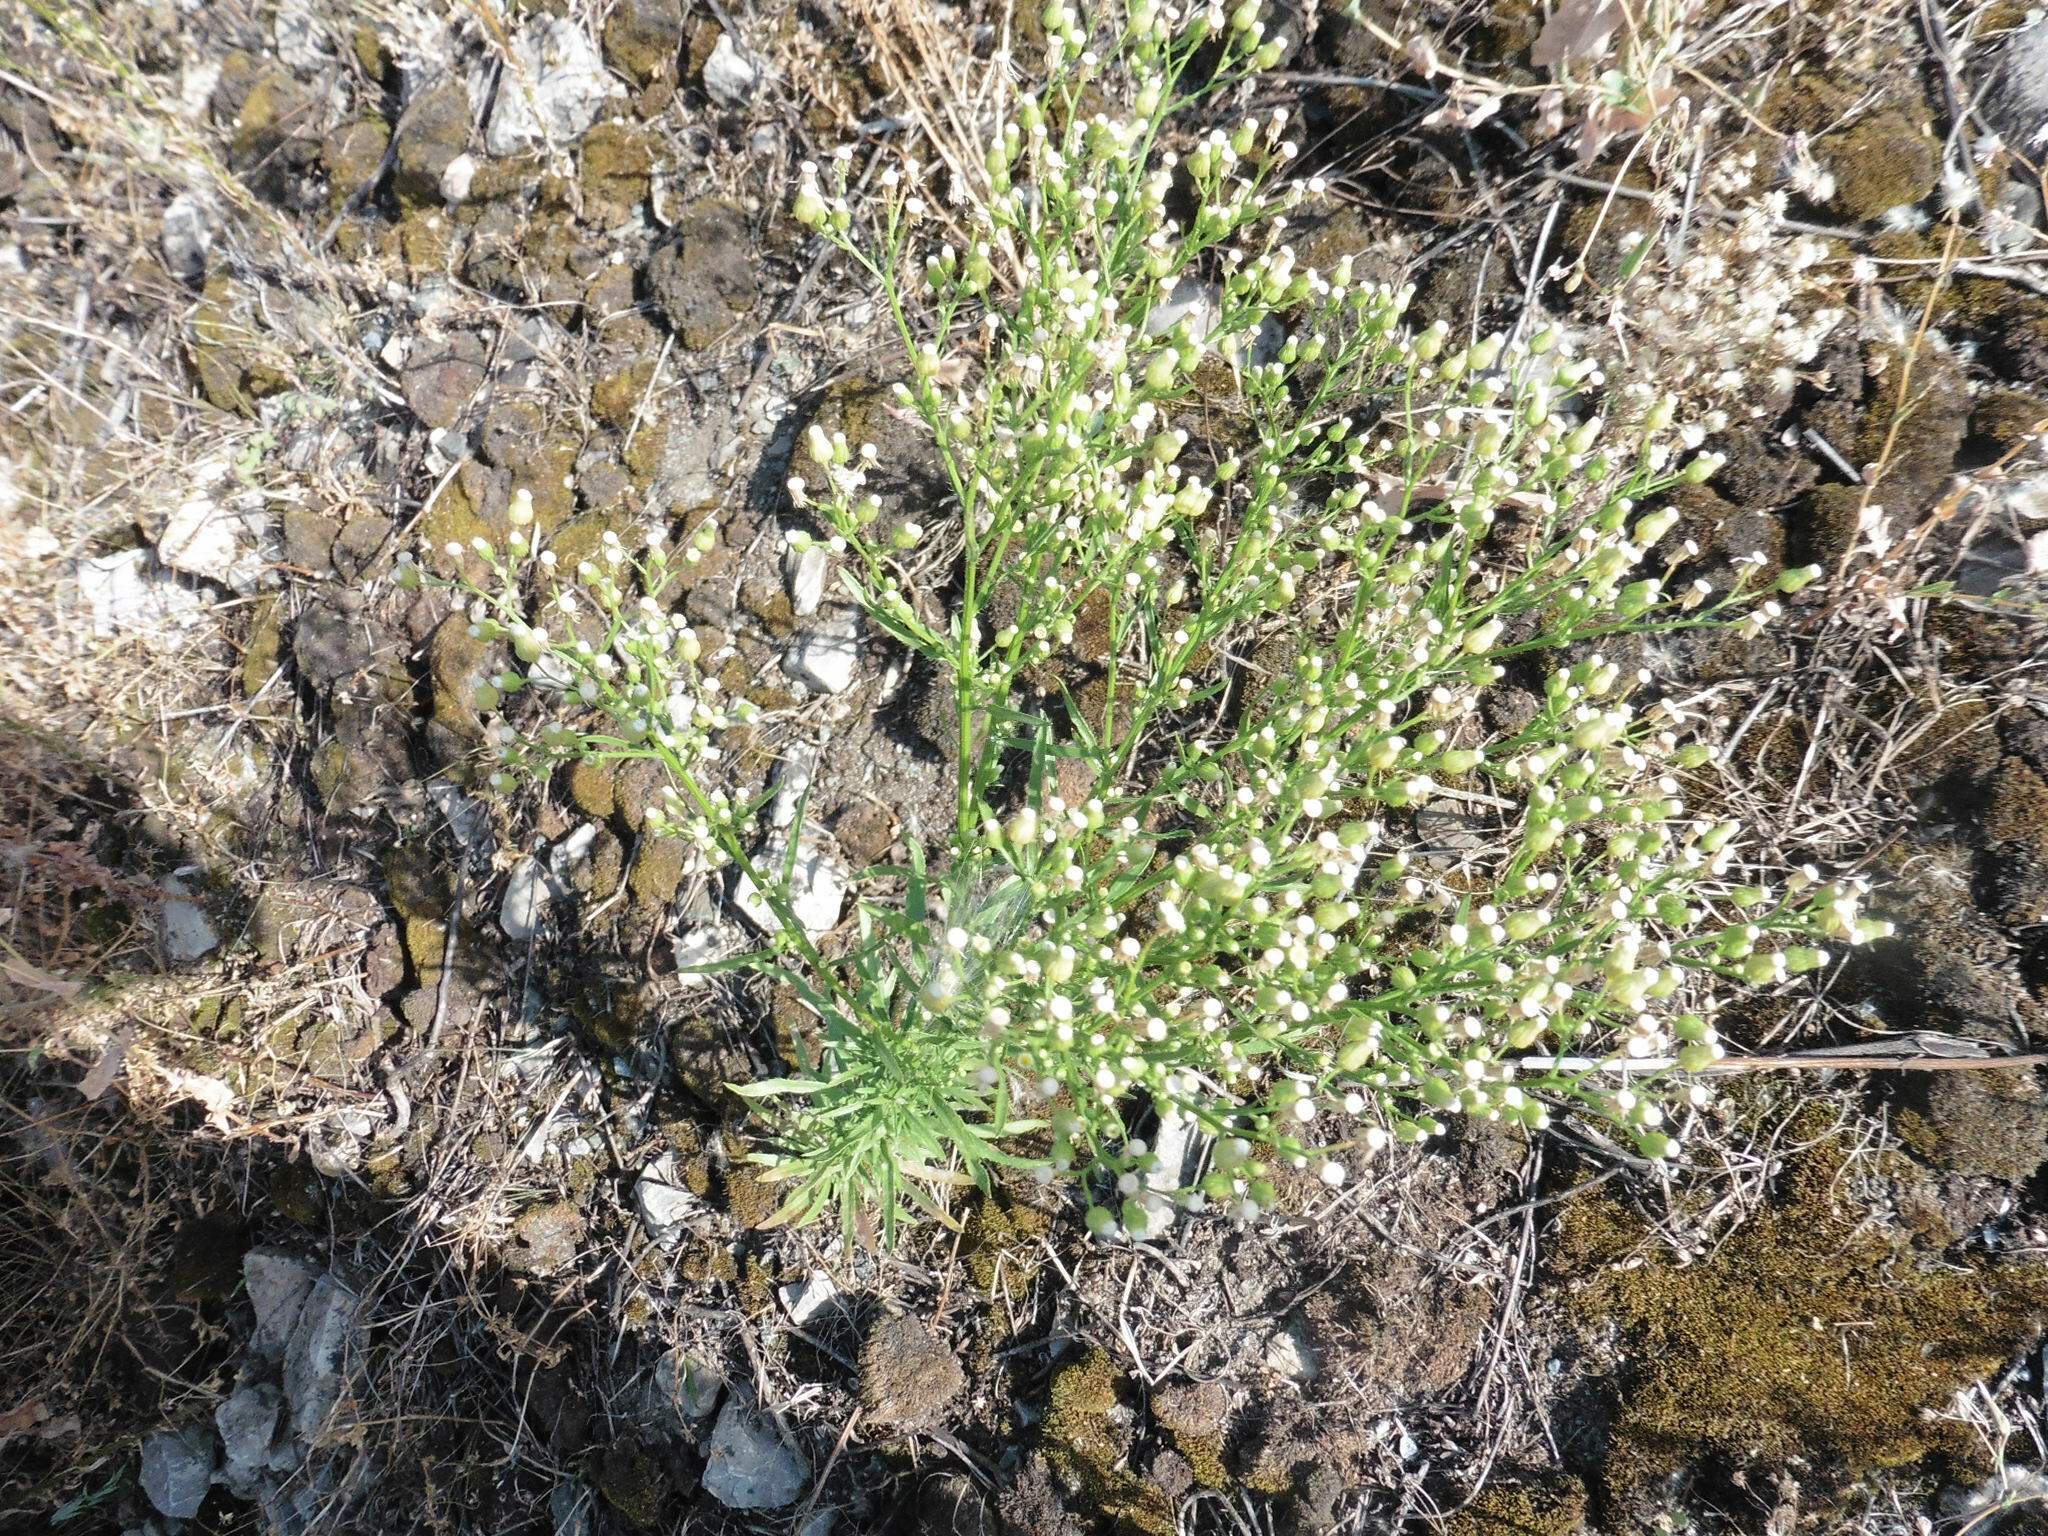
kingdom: Plantae
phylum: Tracheophyta
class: Magnoliopsida
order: Asterales
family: Asteraceae
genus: Erigeron
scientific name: Erigeron canadensis
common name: Canadian fleabane
